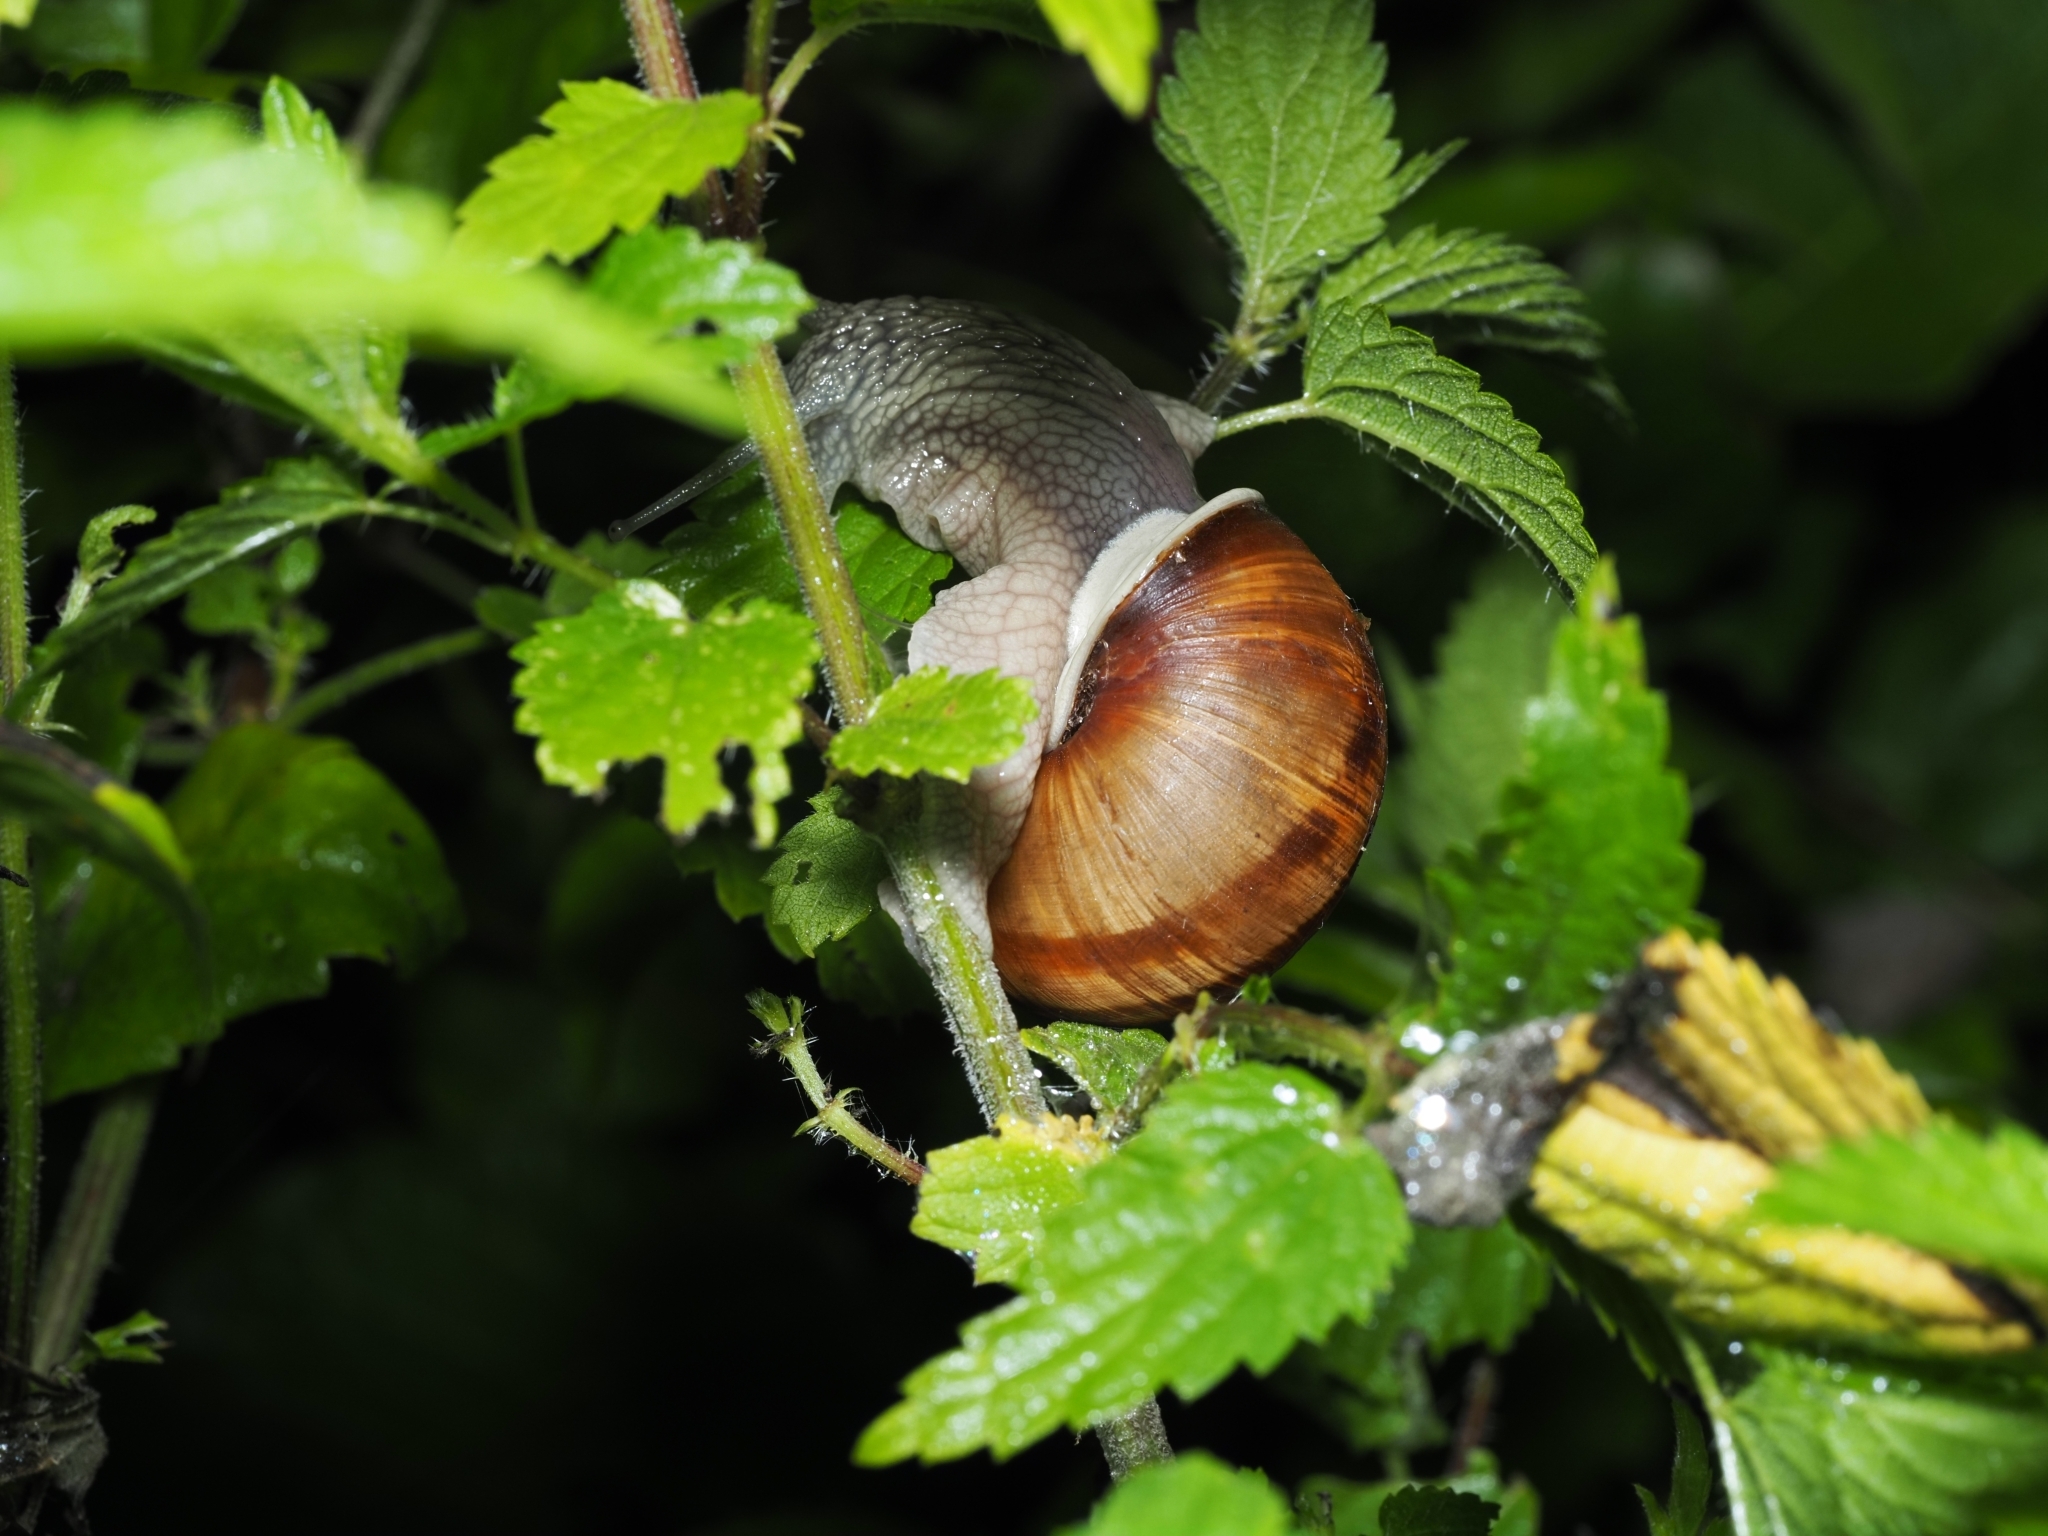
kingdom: Animalia
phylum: Mollusca
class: Gastropoda
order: Stylommatophora
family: Helicidae
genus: Helix
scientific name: Helix pomatia
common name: Roman snail
